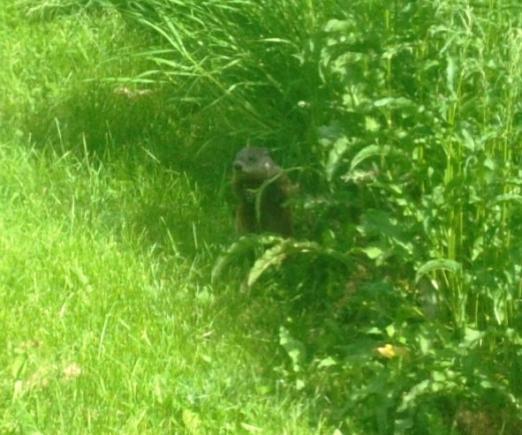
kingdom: Animalia
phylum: Chordata
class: Mammalia
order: Rodentia
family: Sciuridae
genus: Marmota
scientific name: Marmota monax
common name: Groundhog
